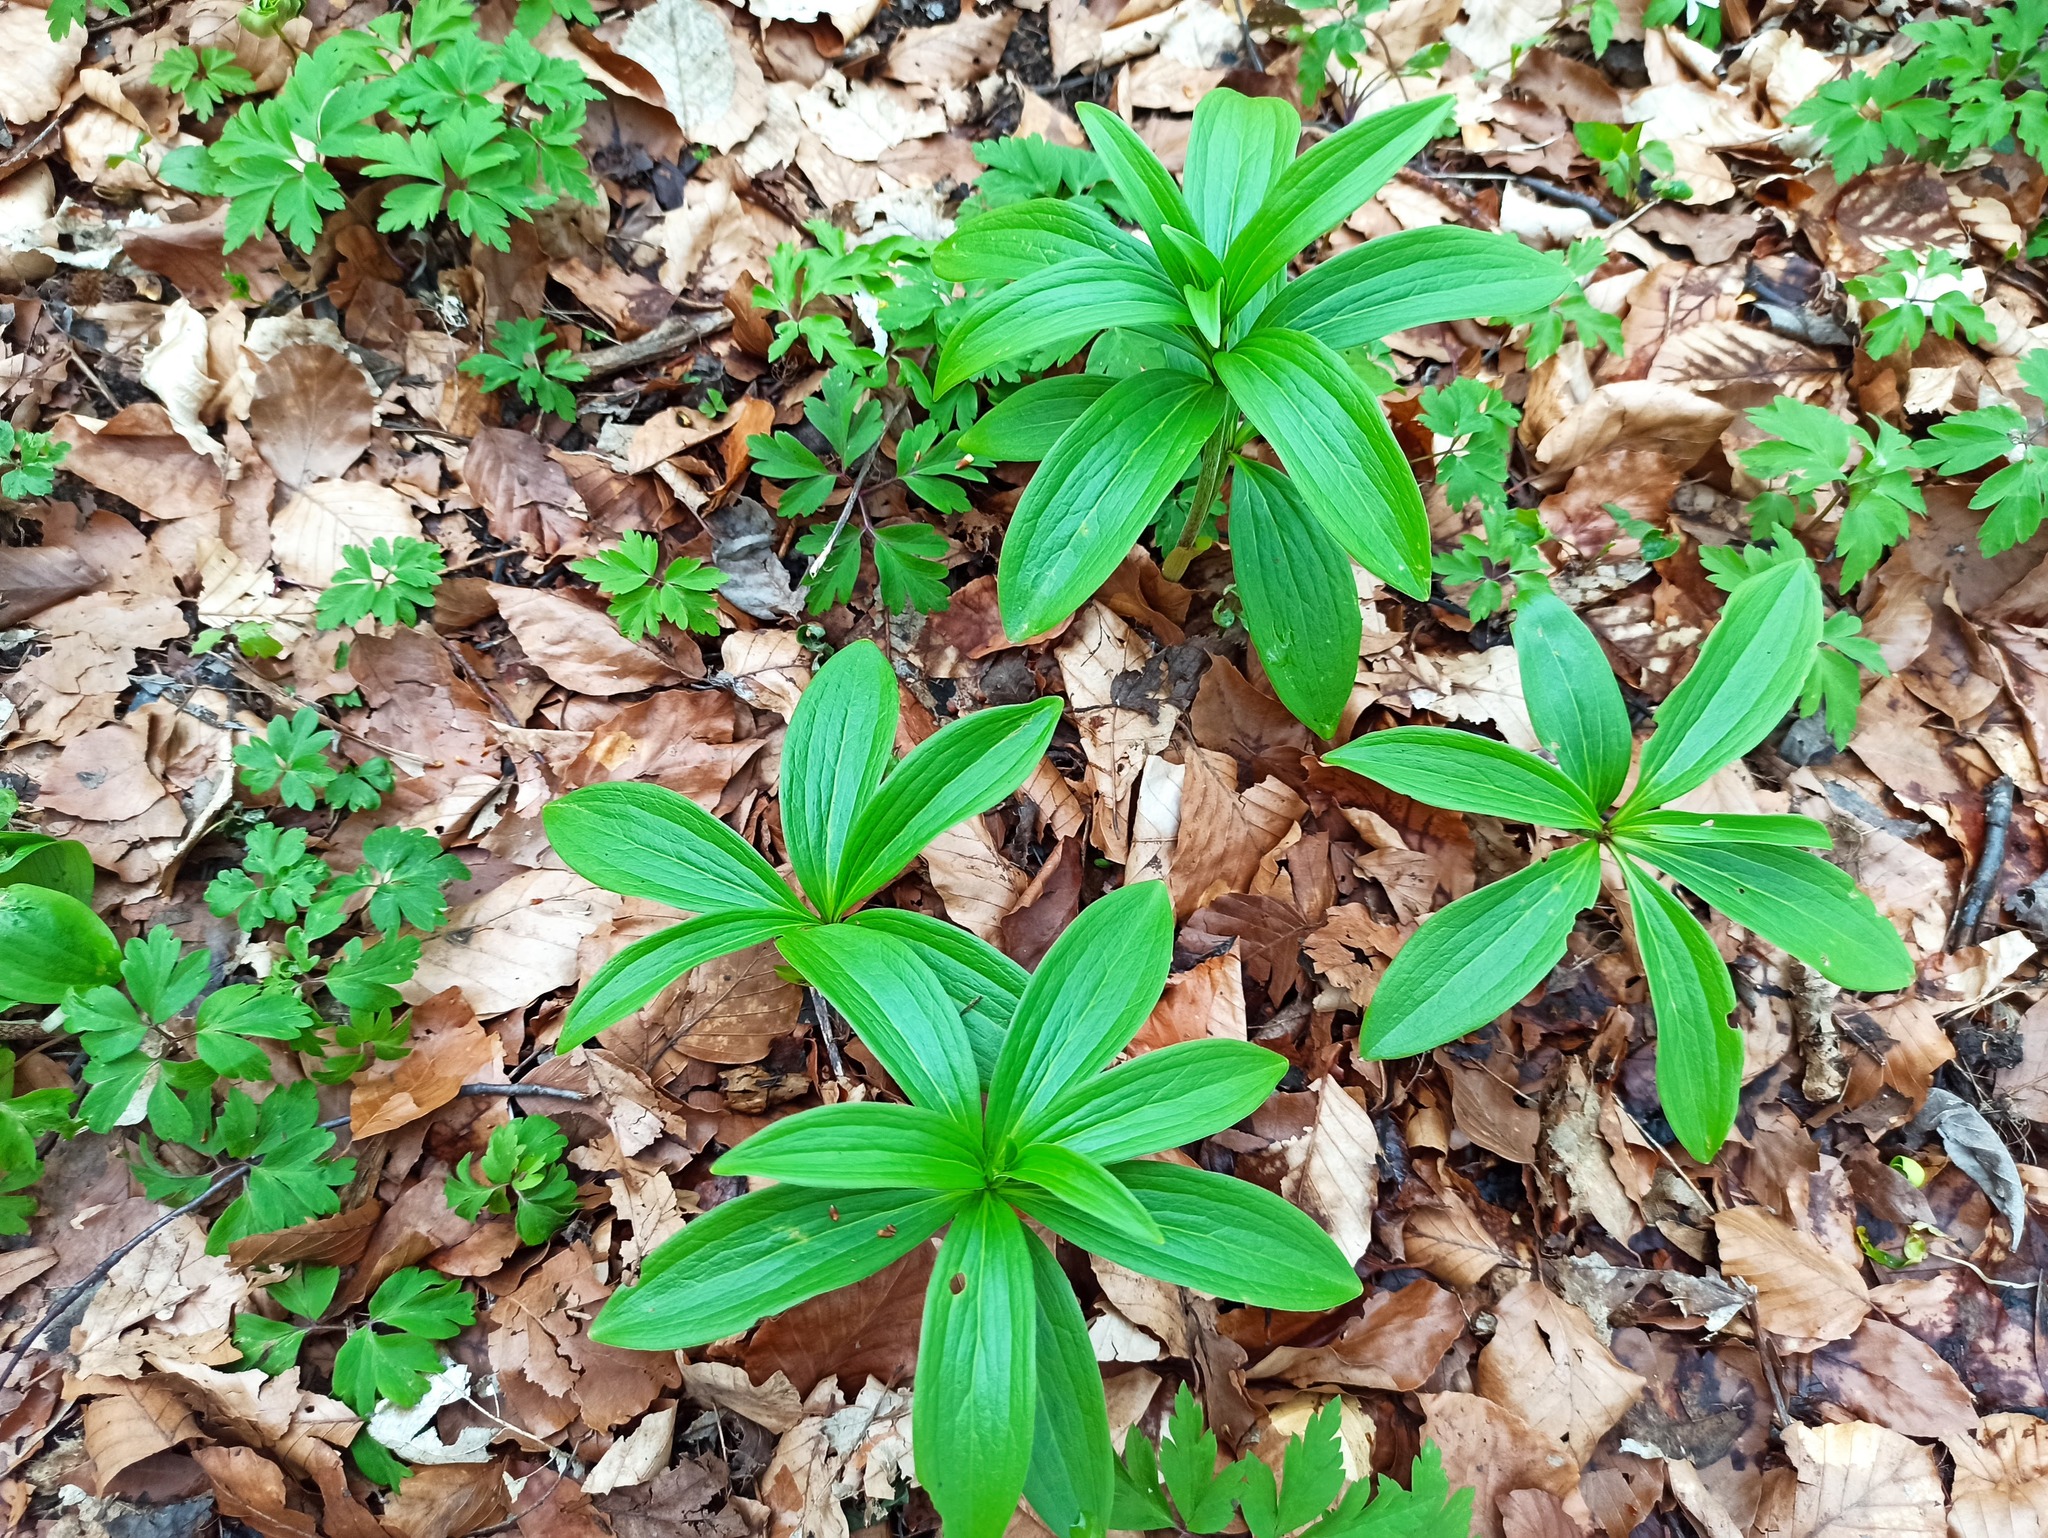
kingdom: Plantae
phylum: Tracheophyta
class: Liliopsida
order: Liliales
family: Liliaceae
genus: Lilium
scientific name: Lilium martagon
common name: Martagon lily
